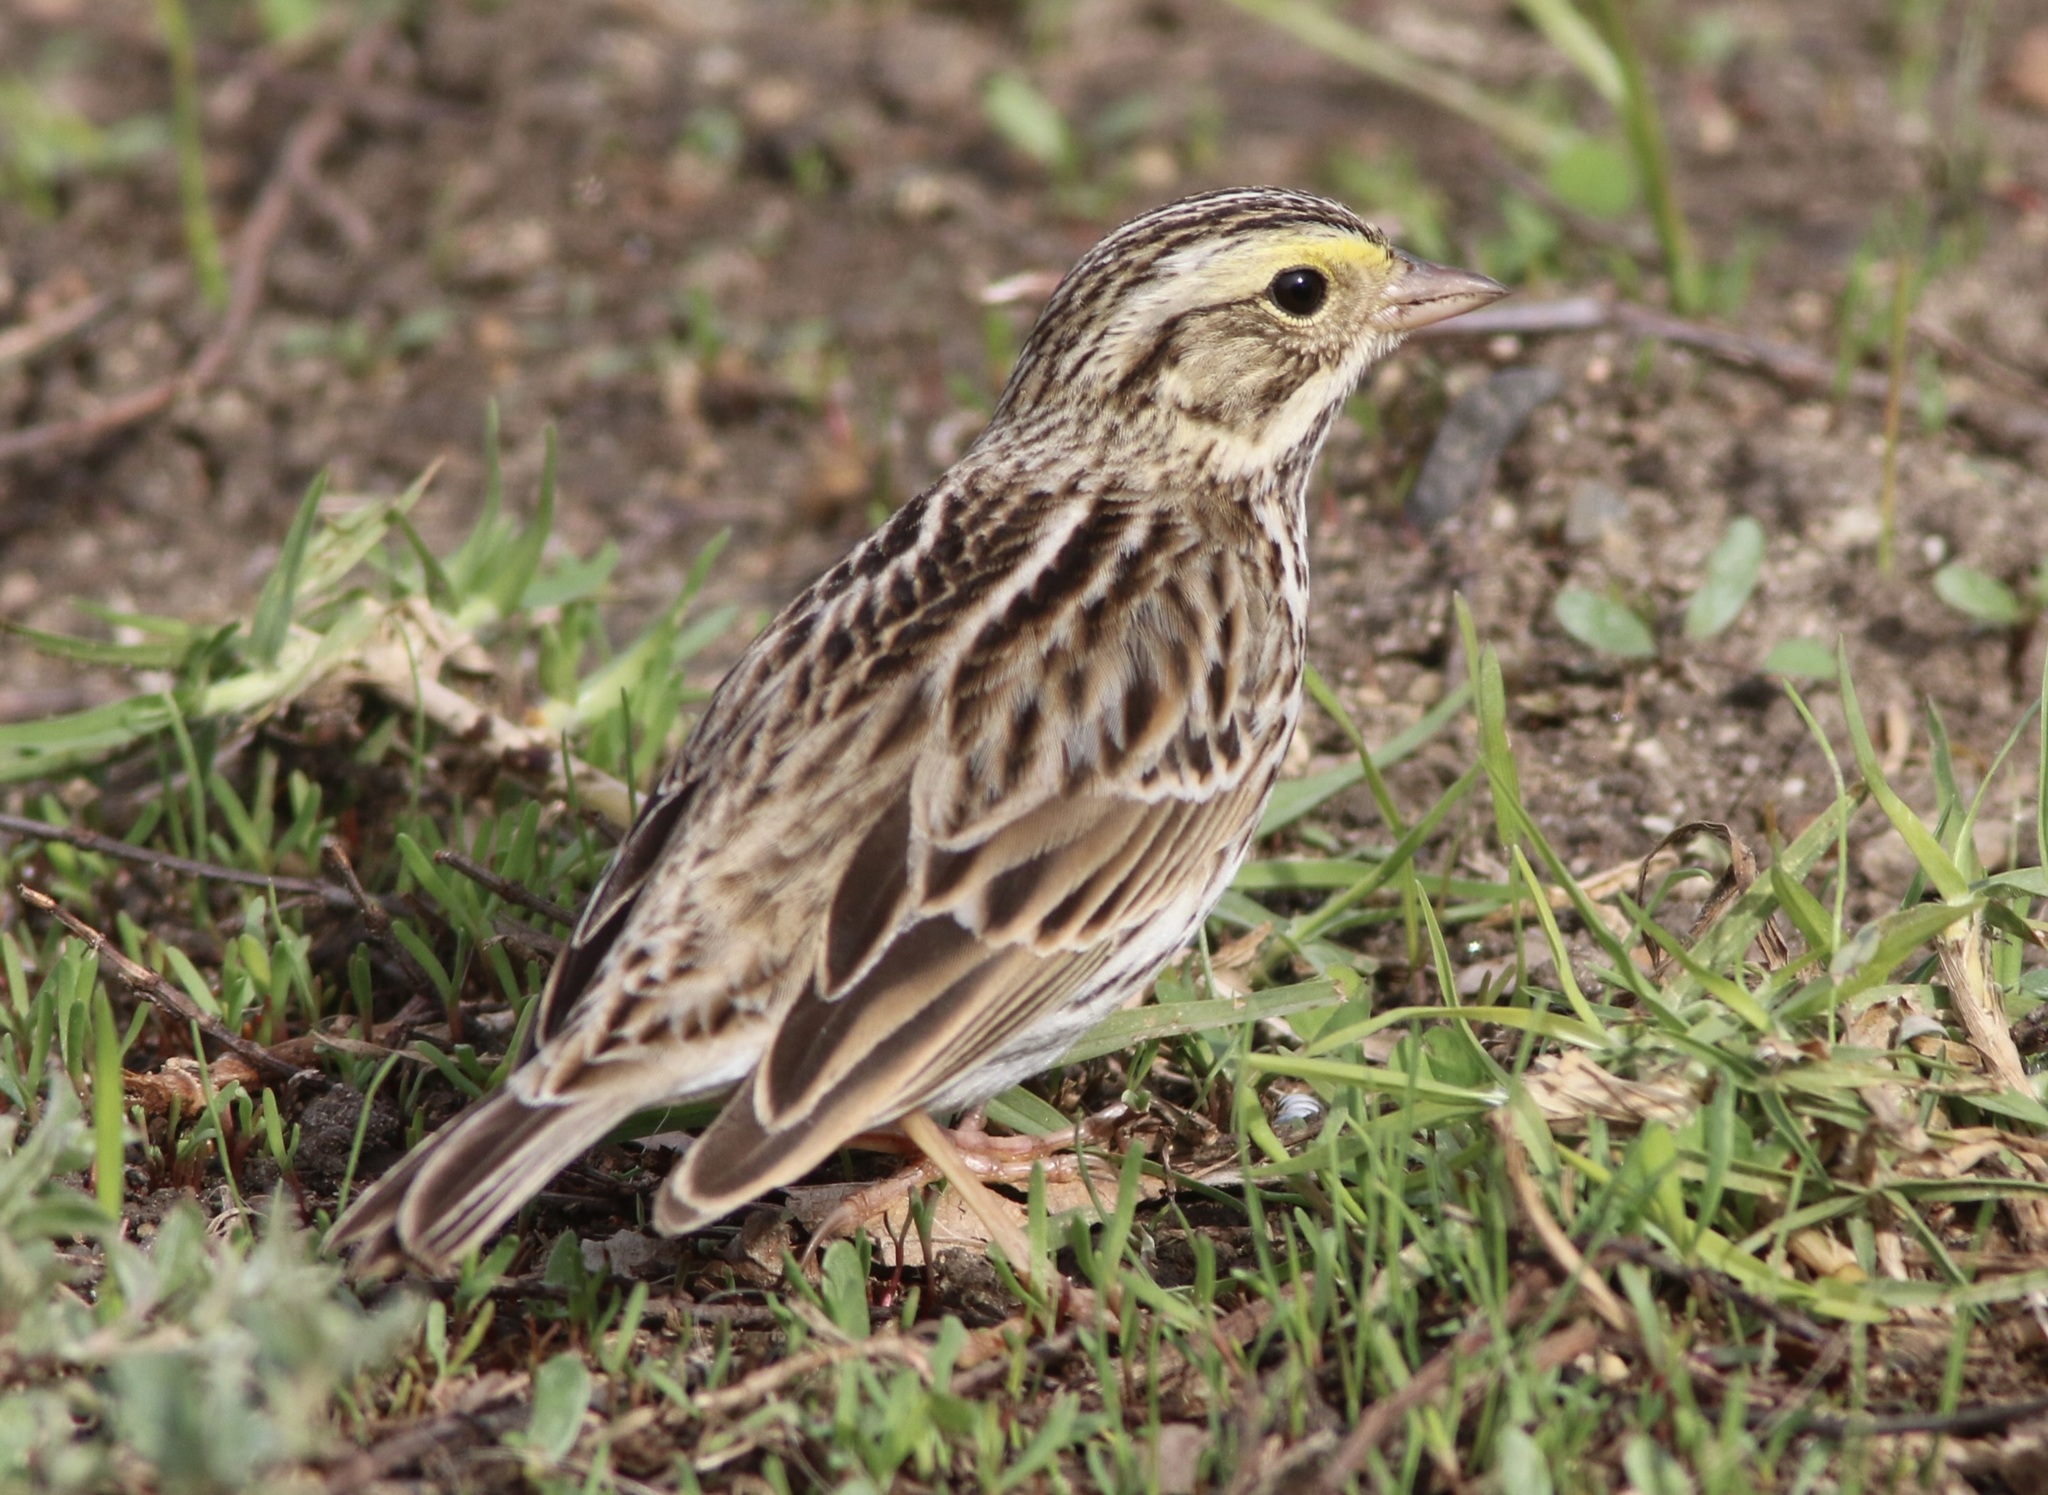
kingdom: Animalia
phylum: Chordata
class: Aves
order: Passeriformes
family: Passerellidae
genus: Passerculus
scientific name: Passerculus sandwichensis
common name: Savannah sparrow
